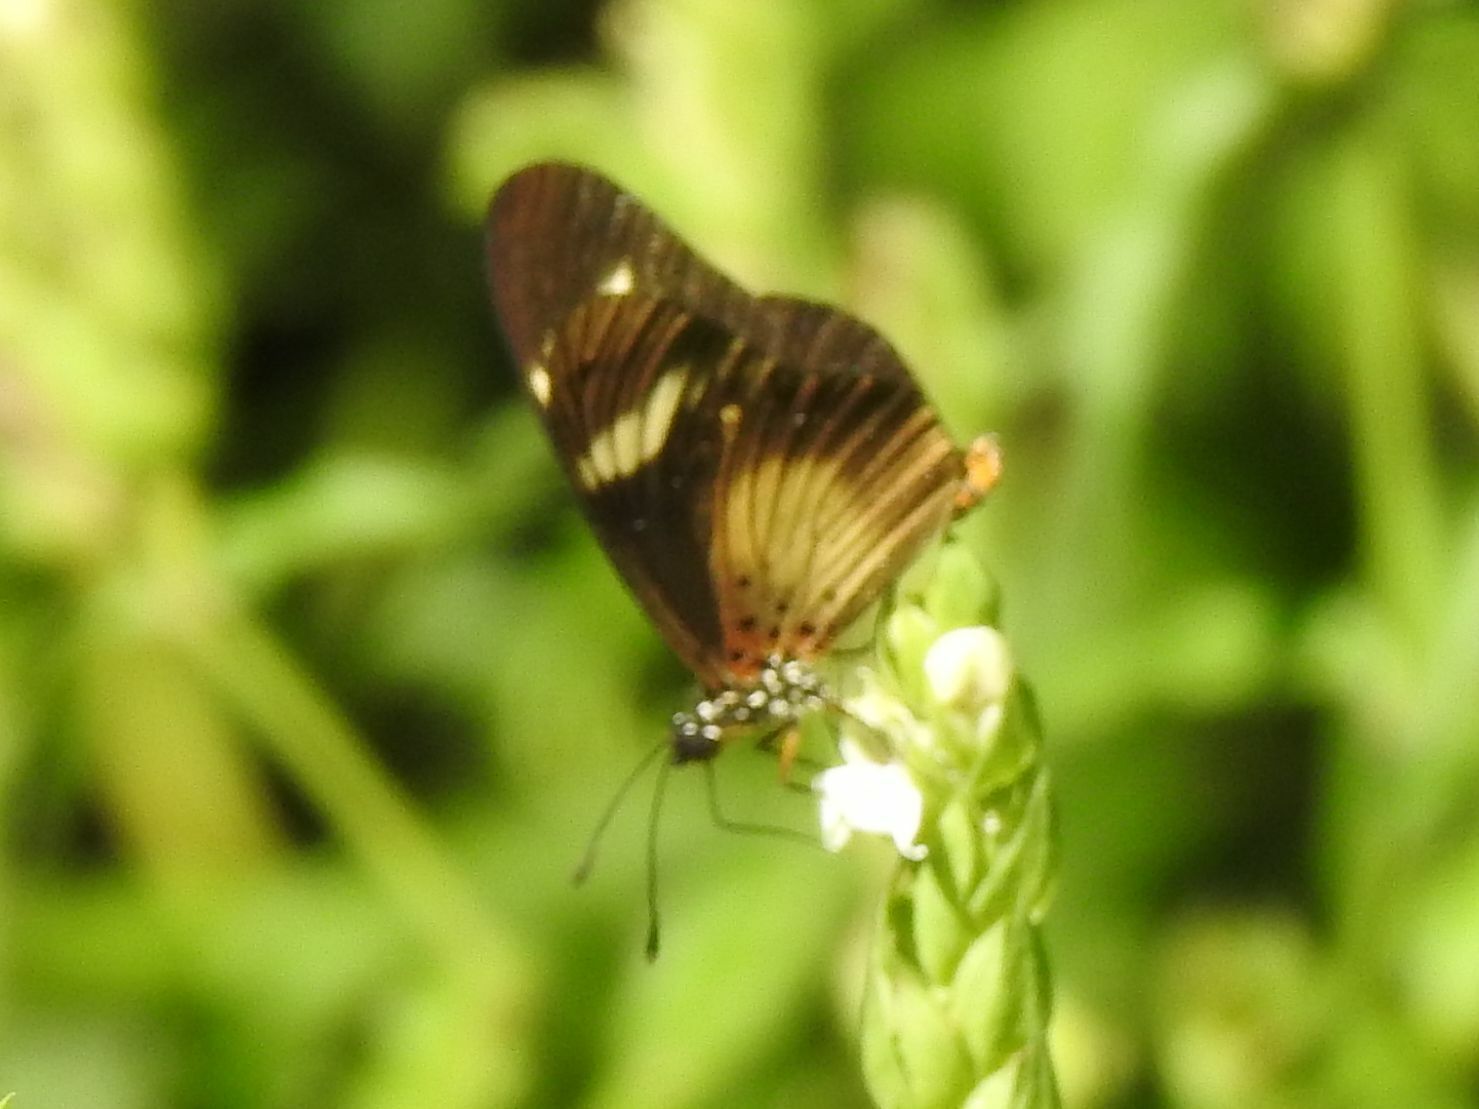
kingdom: Animalia
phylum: Arthropoda
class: Insecta
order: Lepidoptera
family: Nymphalidae
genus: Acraea
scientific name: Acraea esebria
